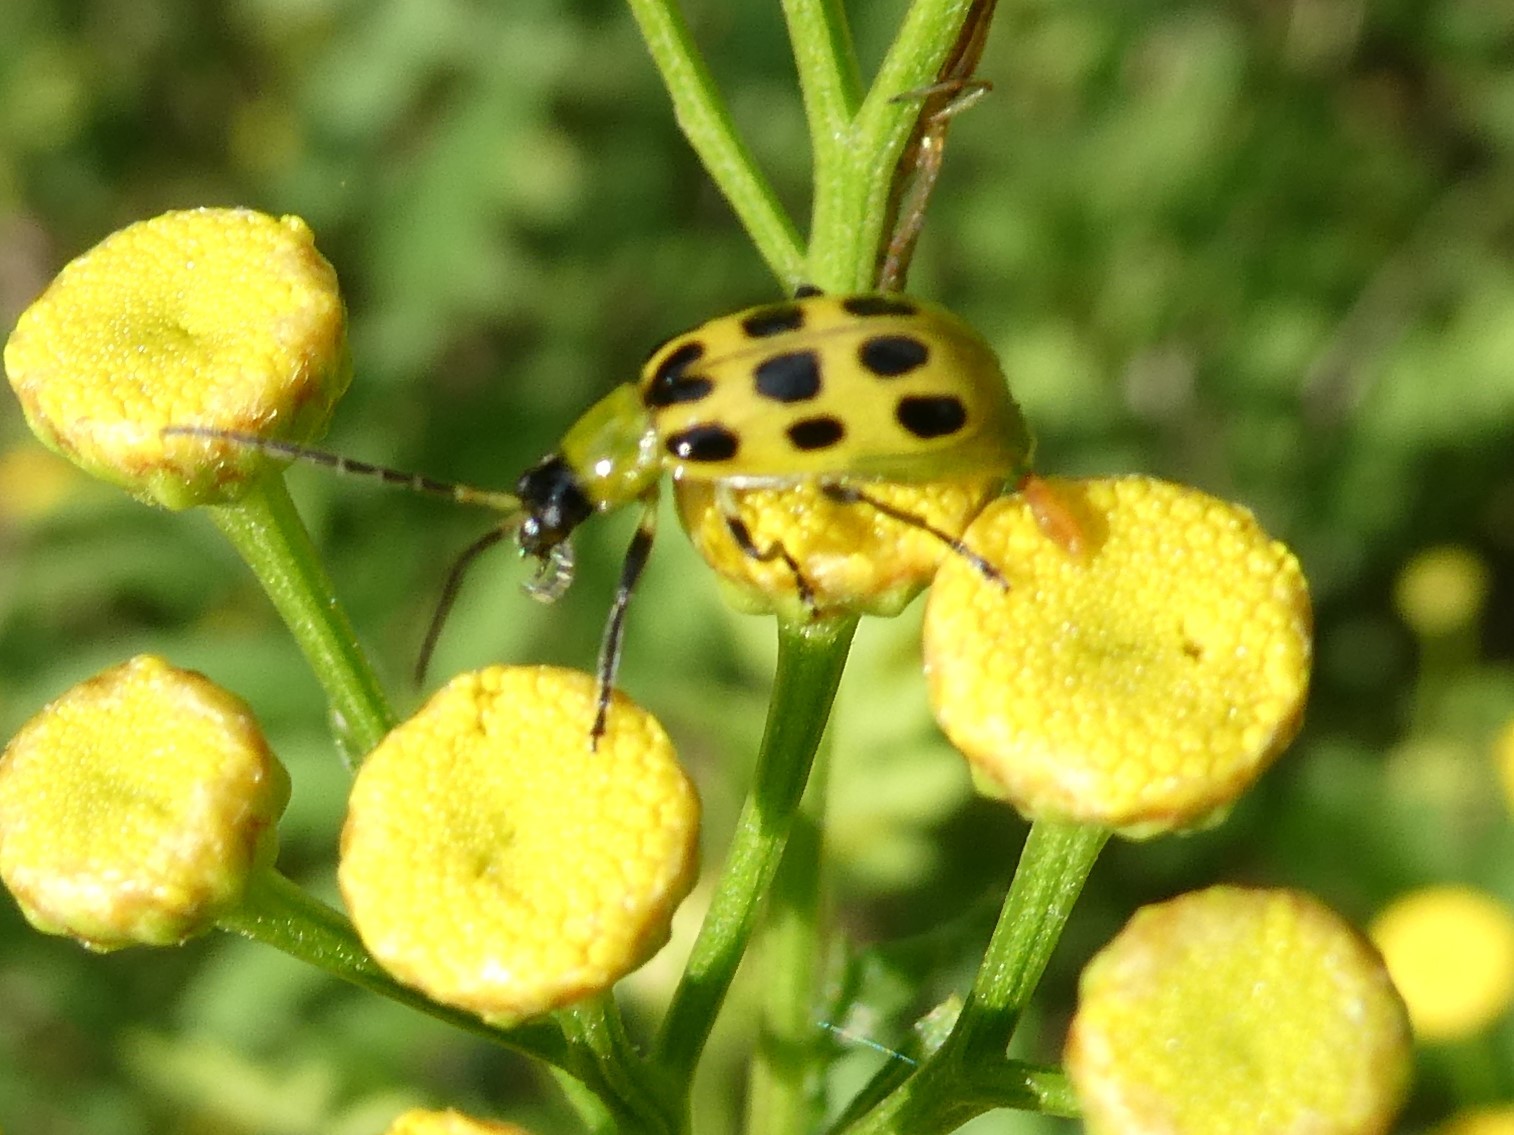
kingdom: Animalia
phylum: Arthropoda
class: Insecta
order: Coleoptera
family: Chrysomelidae
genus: Diabrotica
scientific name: Diabrotica undecimpunctata
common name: Spotted cucumber beetle
